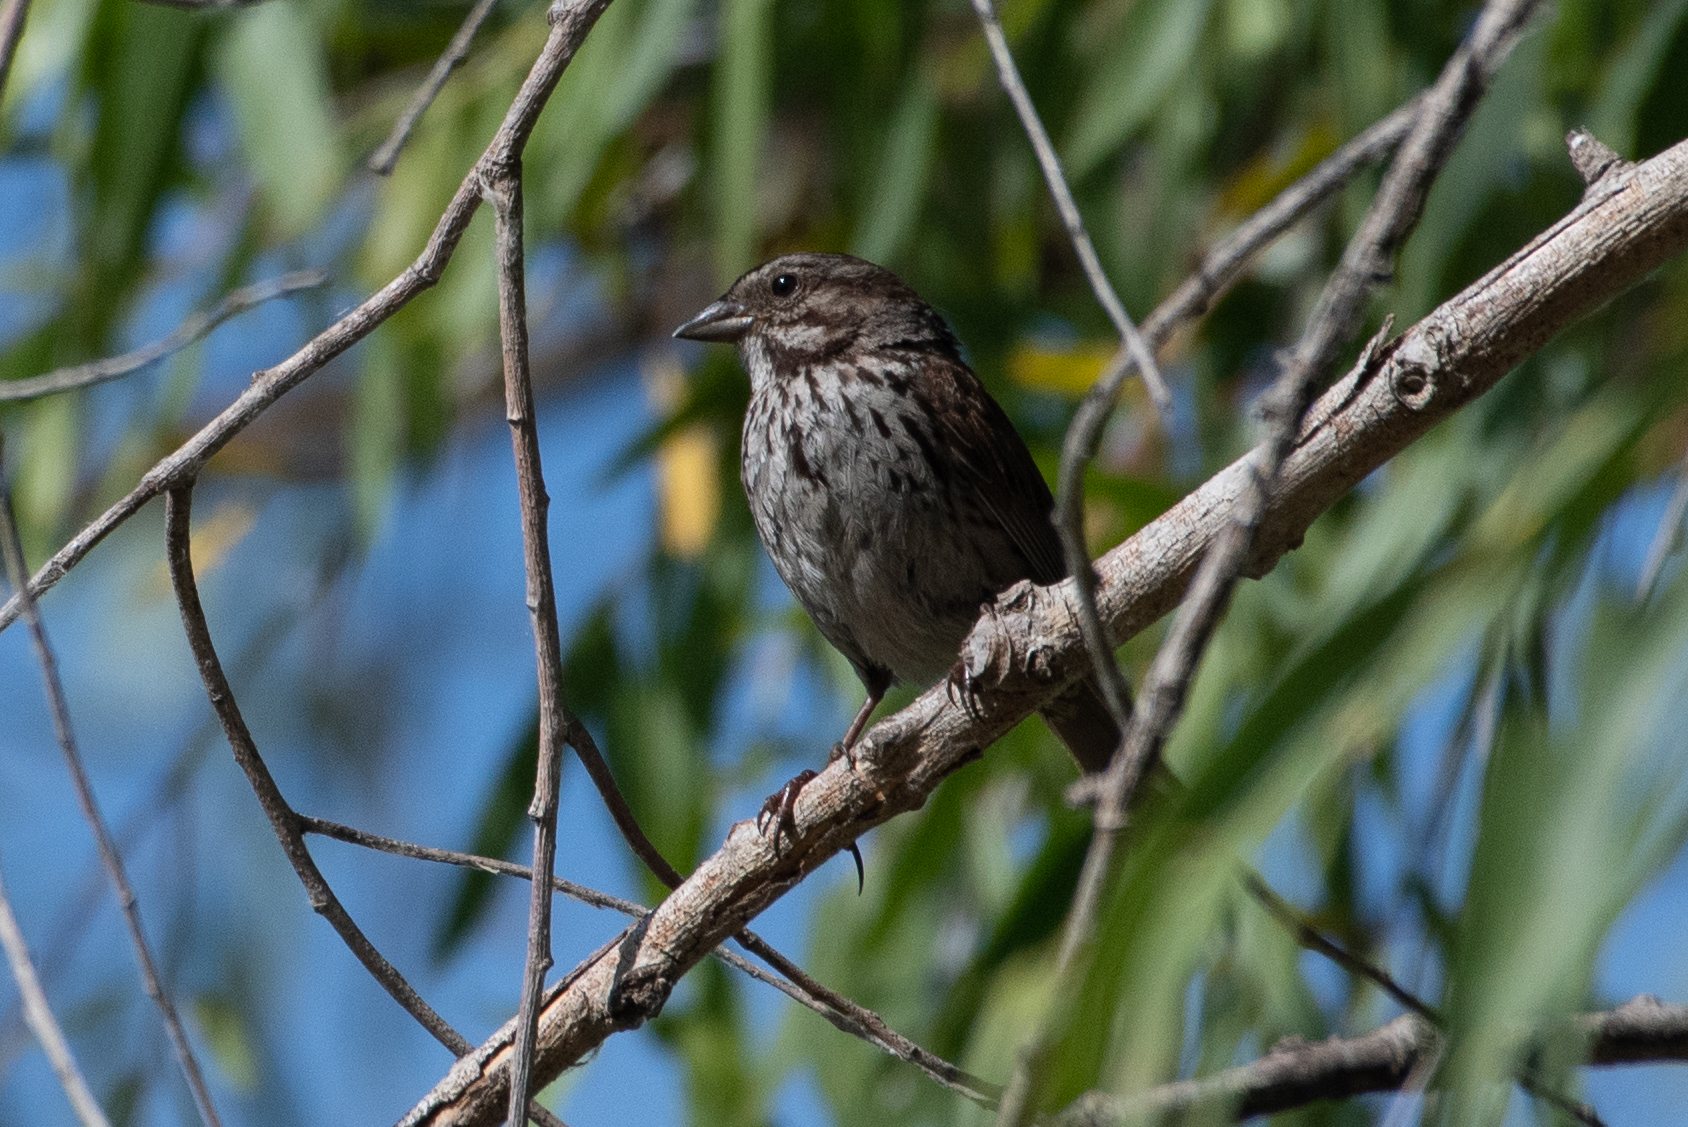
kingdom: Animalia
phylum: Chordata
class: Aves
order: Passeriformes
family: Passerellidae
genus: Melospiza
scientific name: Melospiza melodia
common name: Song sparrow
